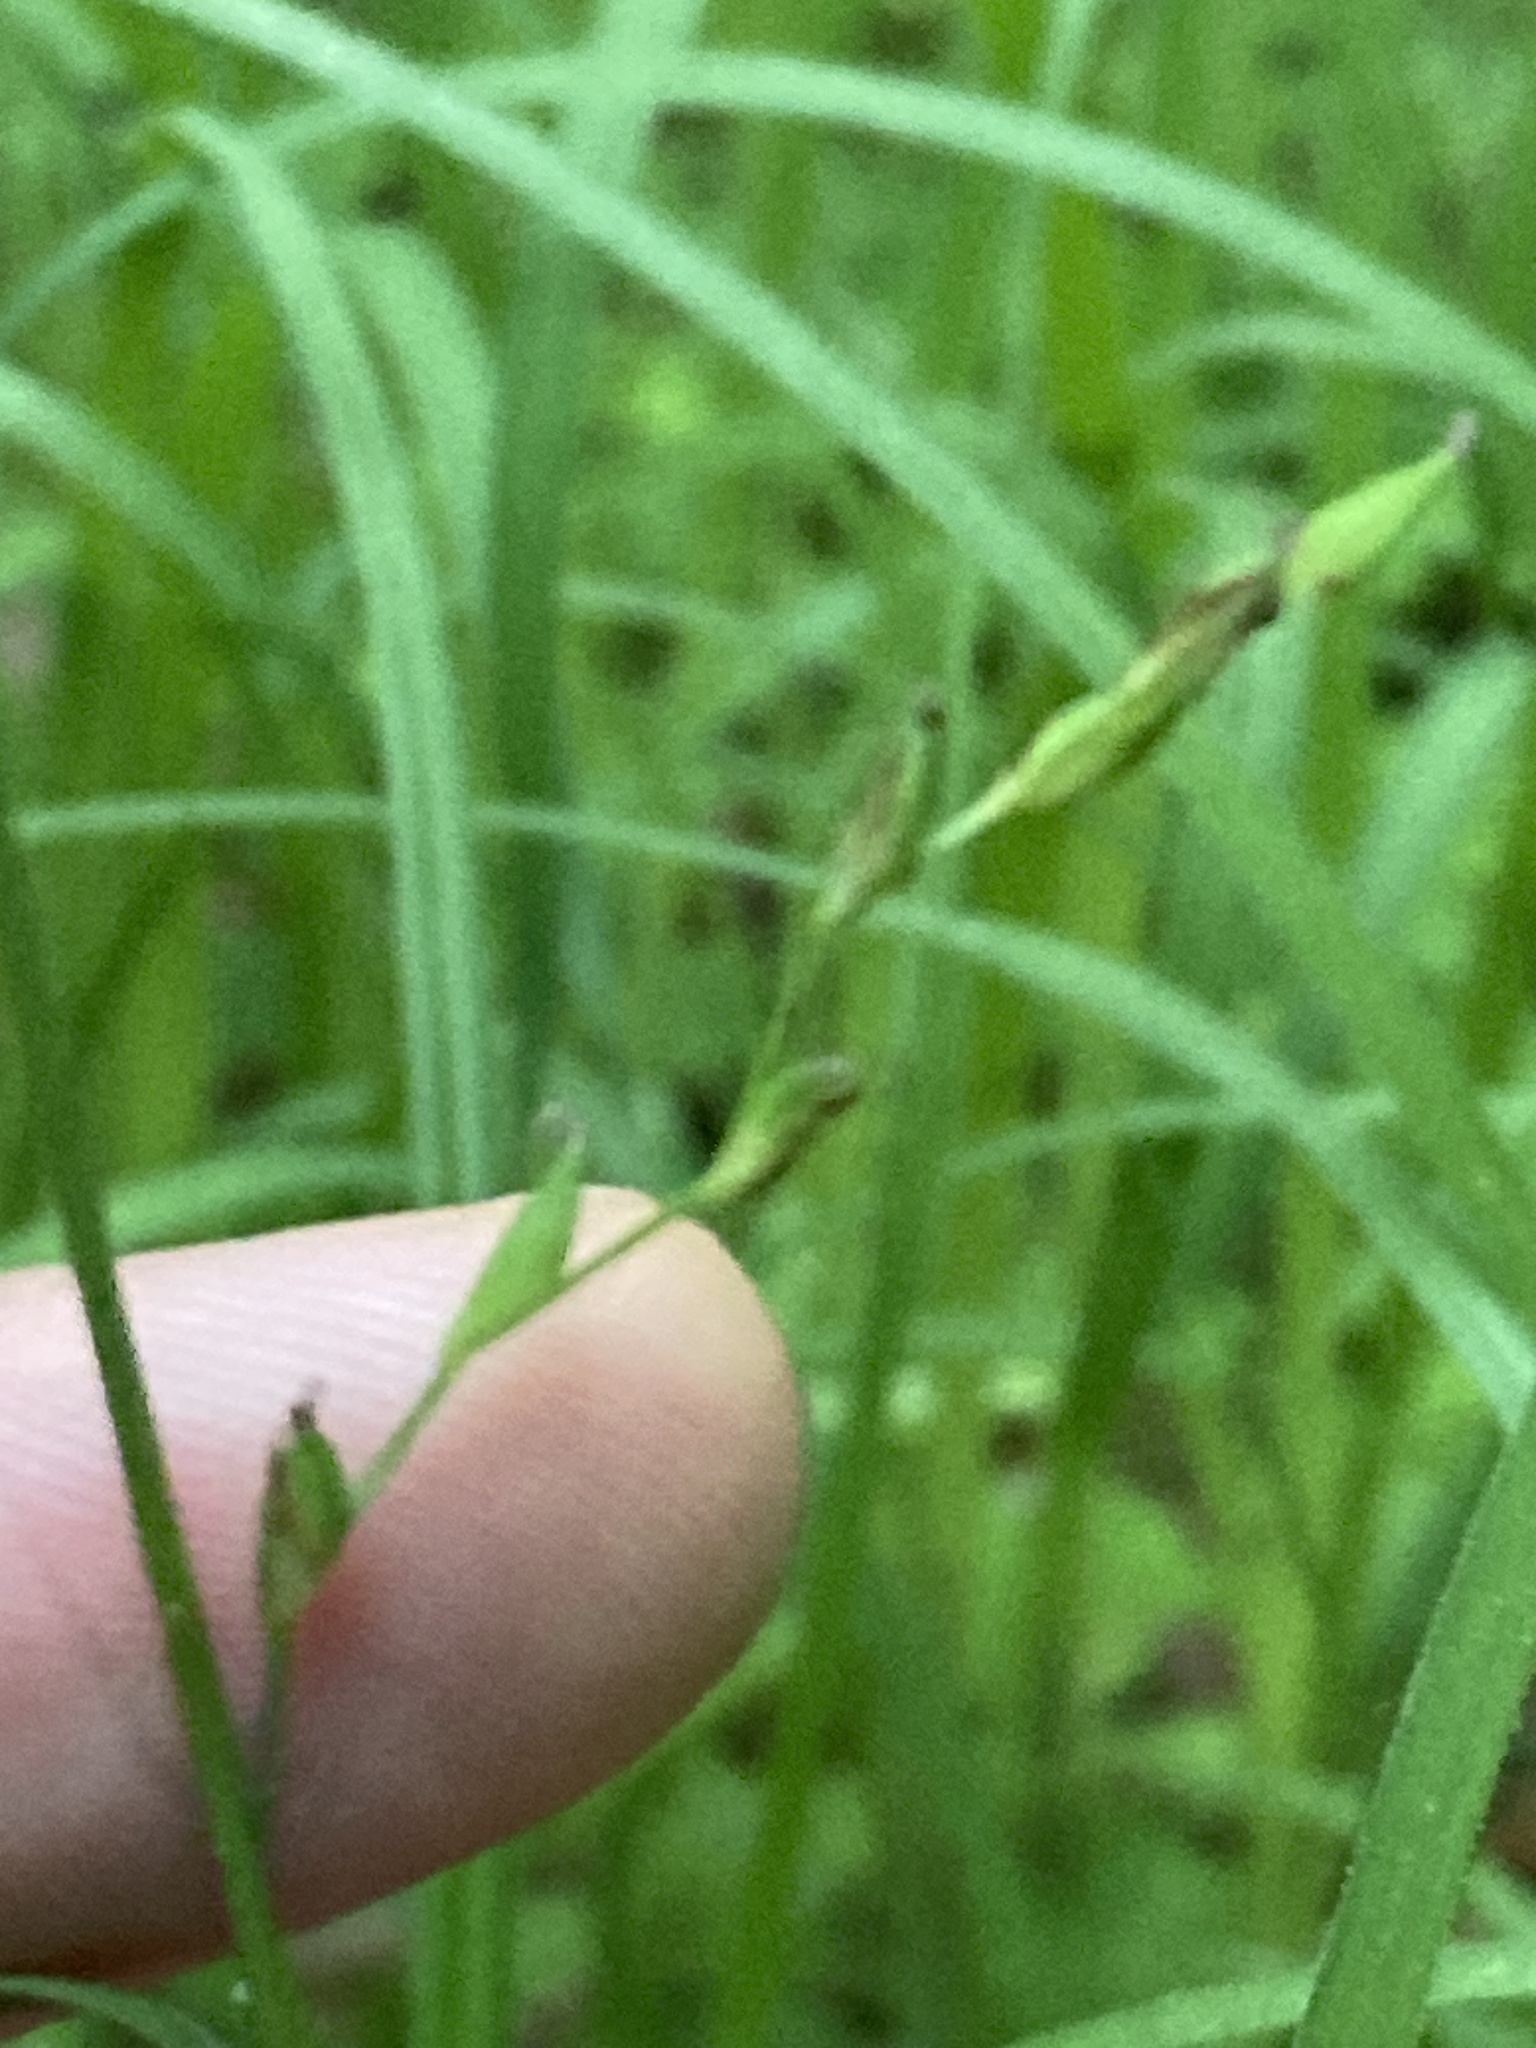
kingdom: Plantae
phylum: Tracheophyta
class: Liliopsida
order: Poales
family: Cyperaceae
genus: Carex
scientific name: Carex pilosa
